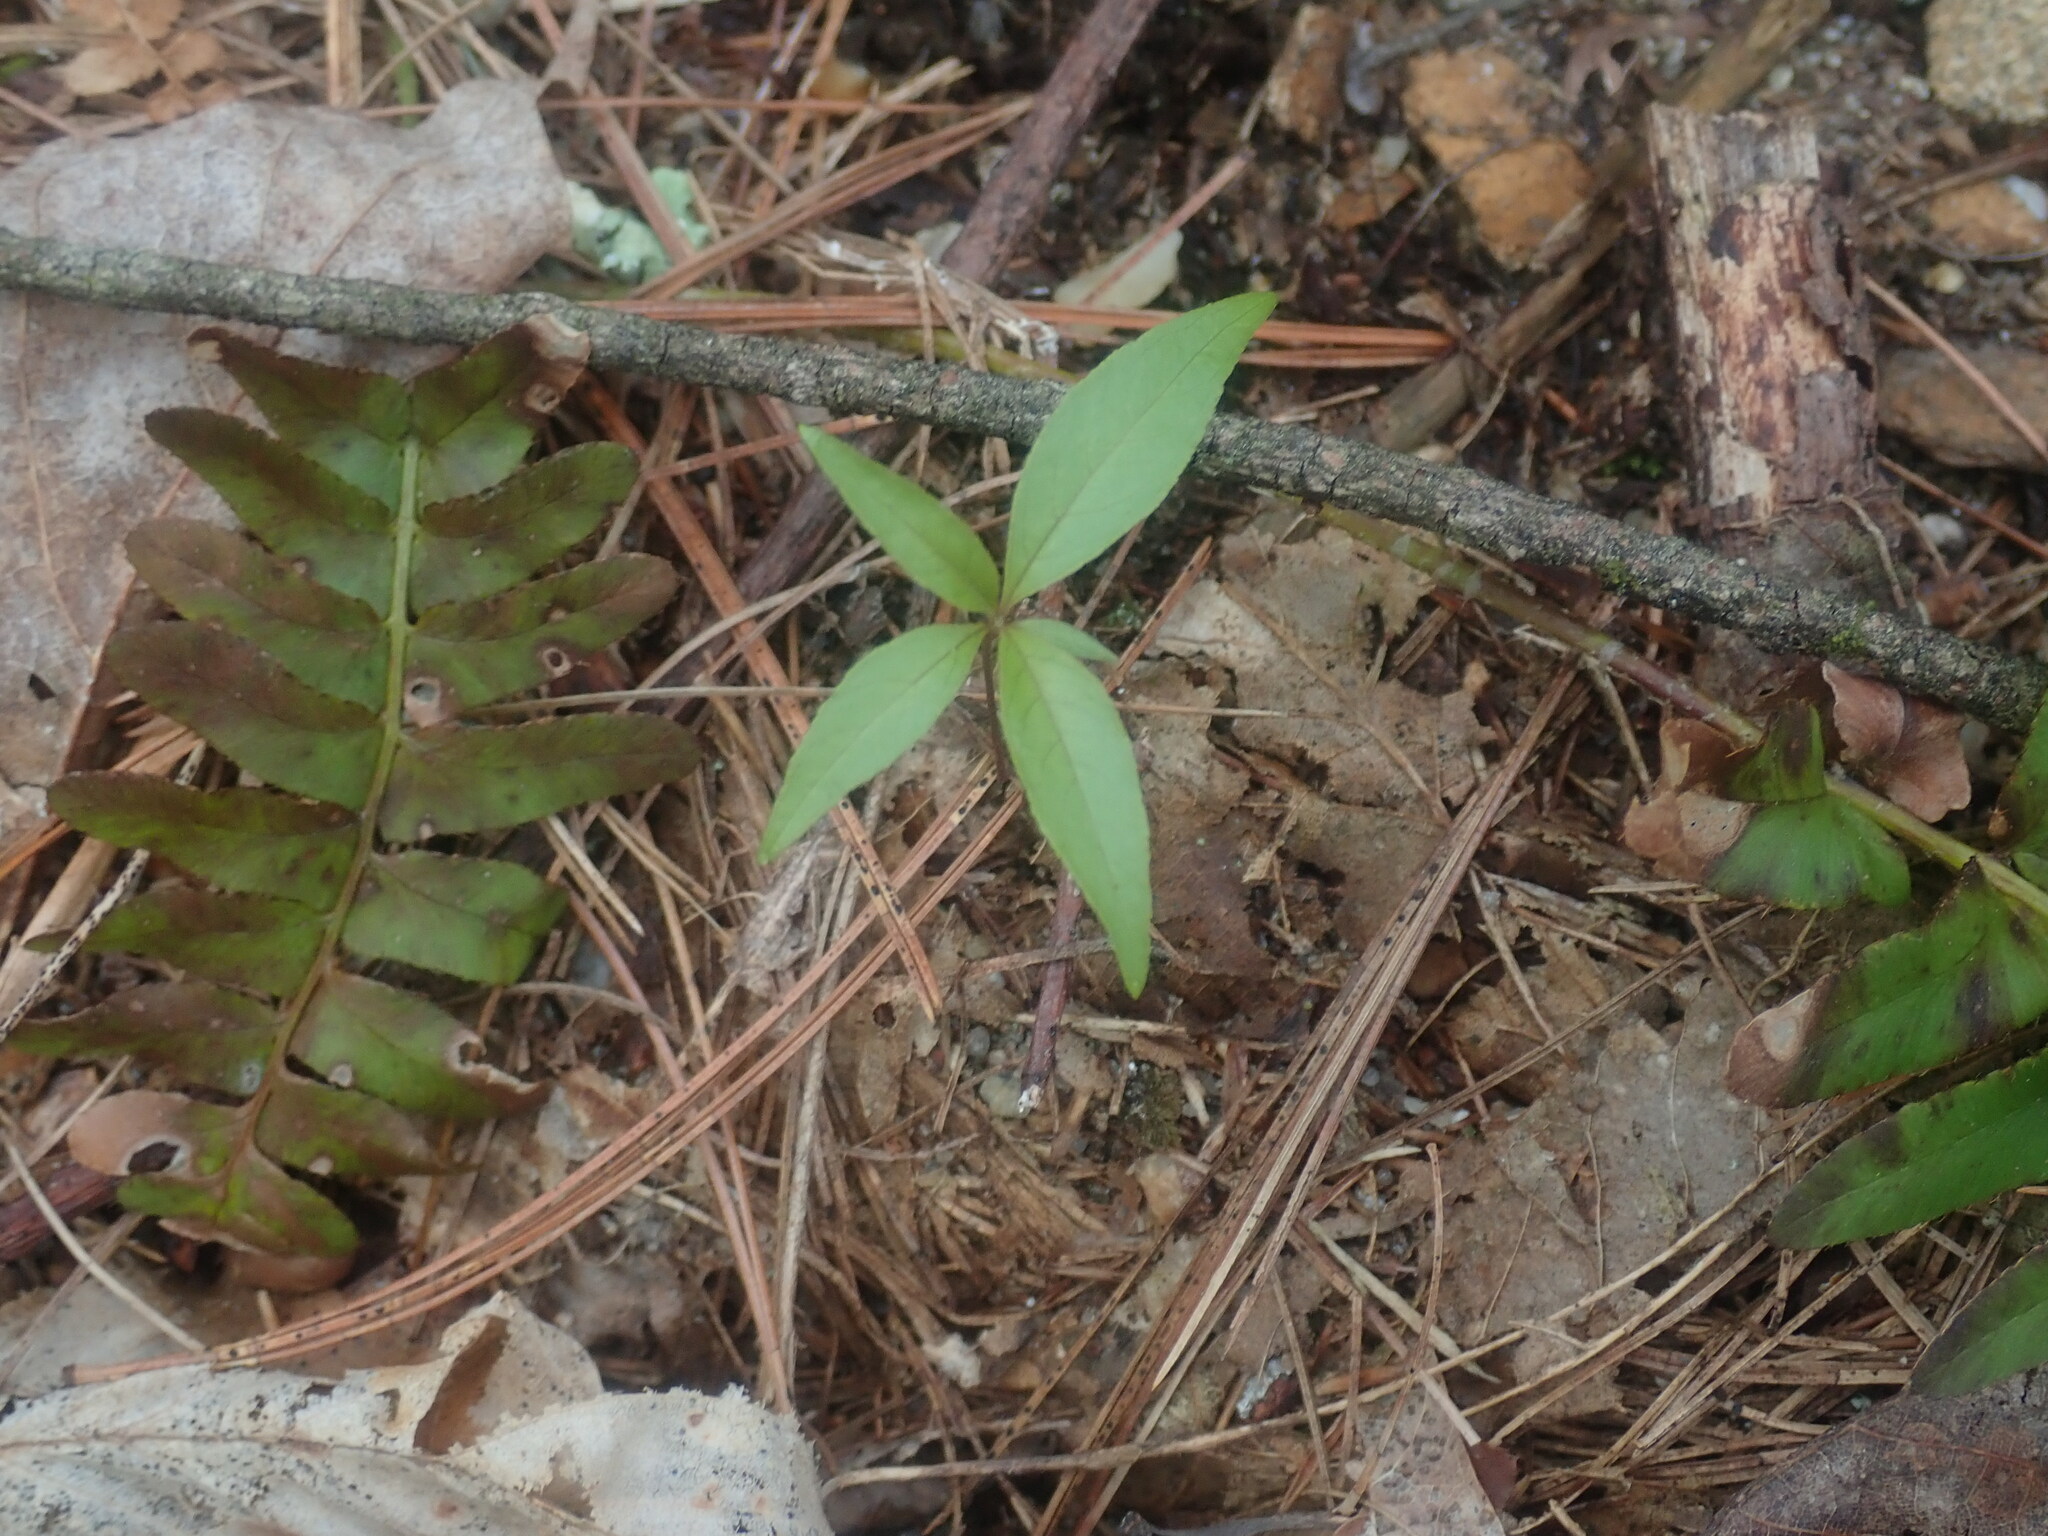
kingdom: Plantae
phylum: Tracheophyta
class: Magnoliopsida
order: Ericales
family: Primulaceae
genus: Lysimachia
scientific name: Lysimachia borealis
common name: American starflower
